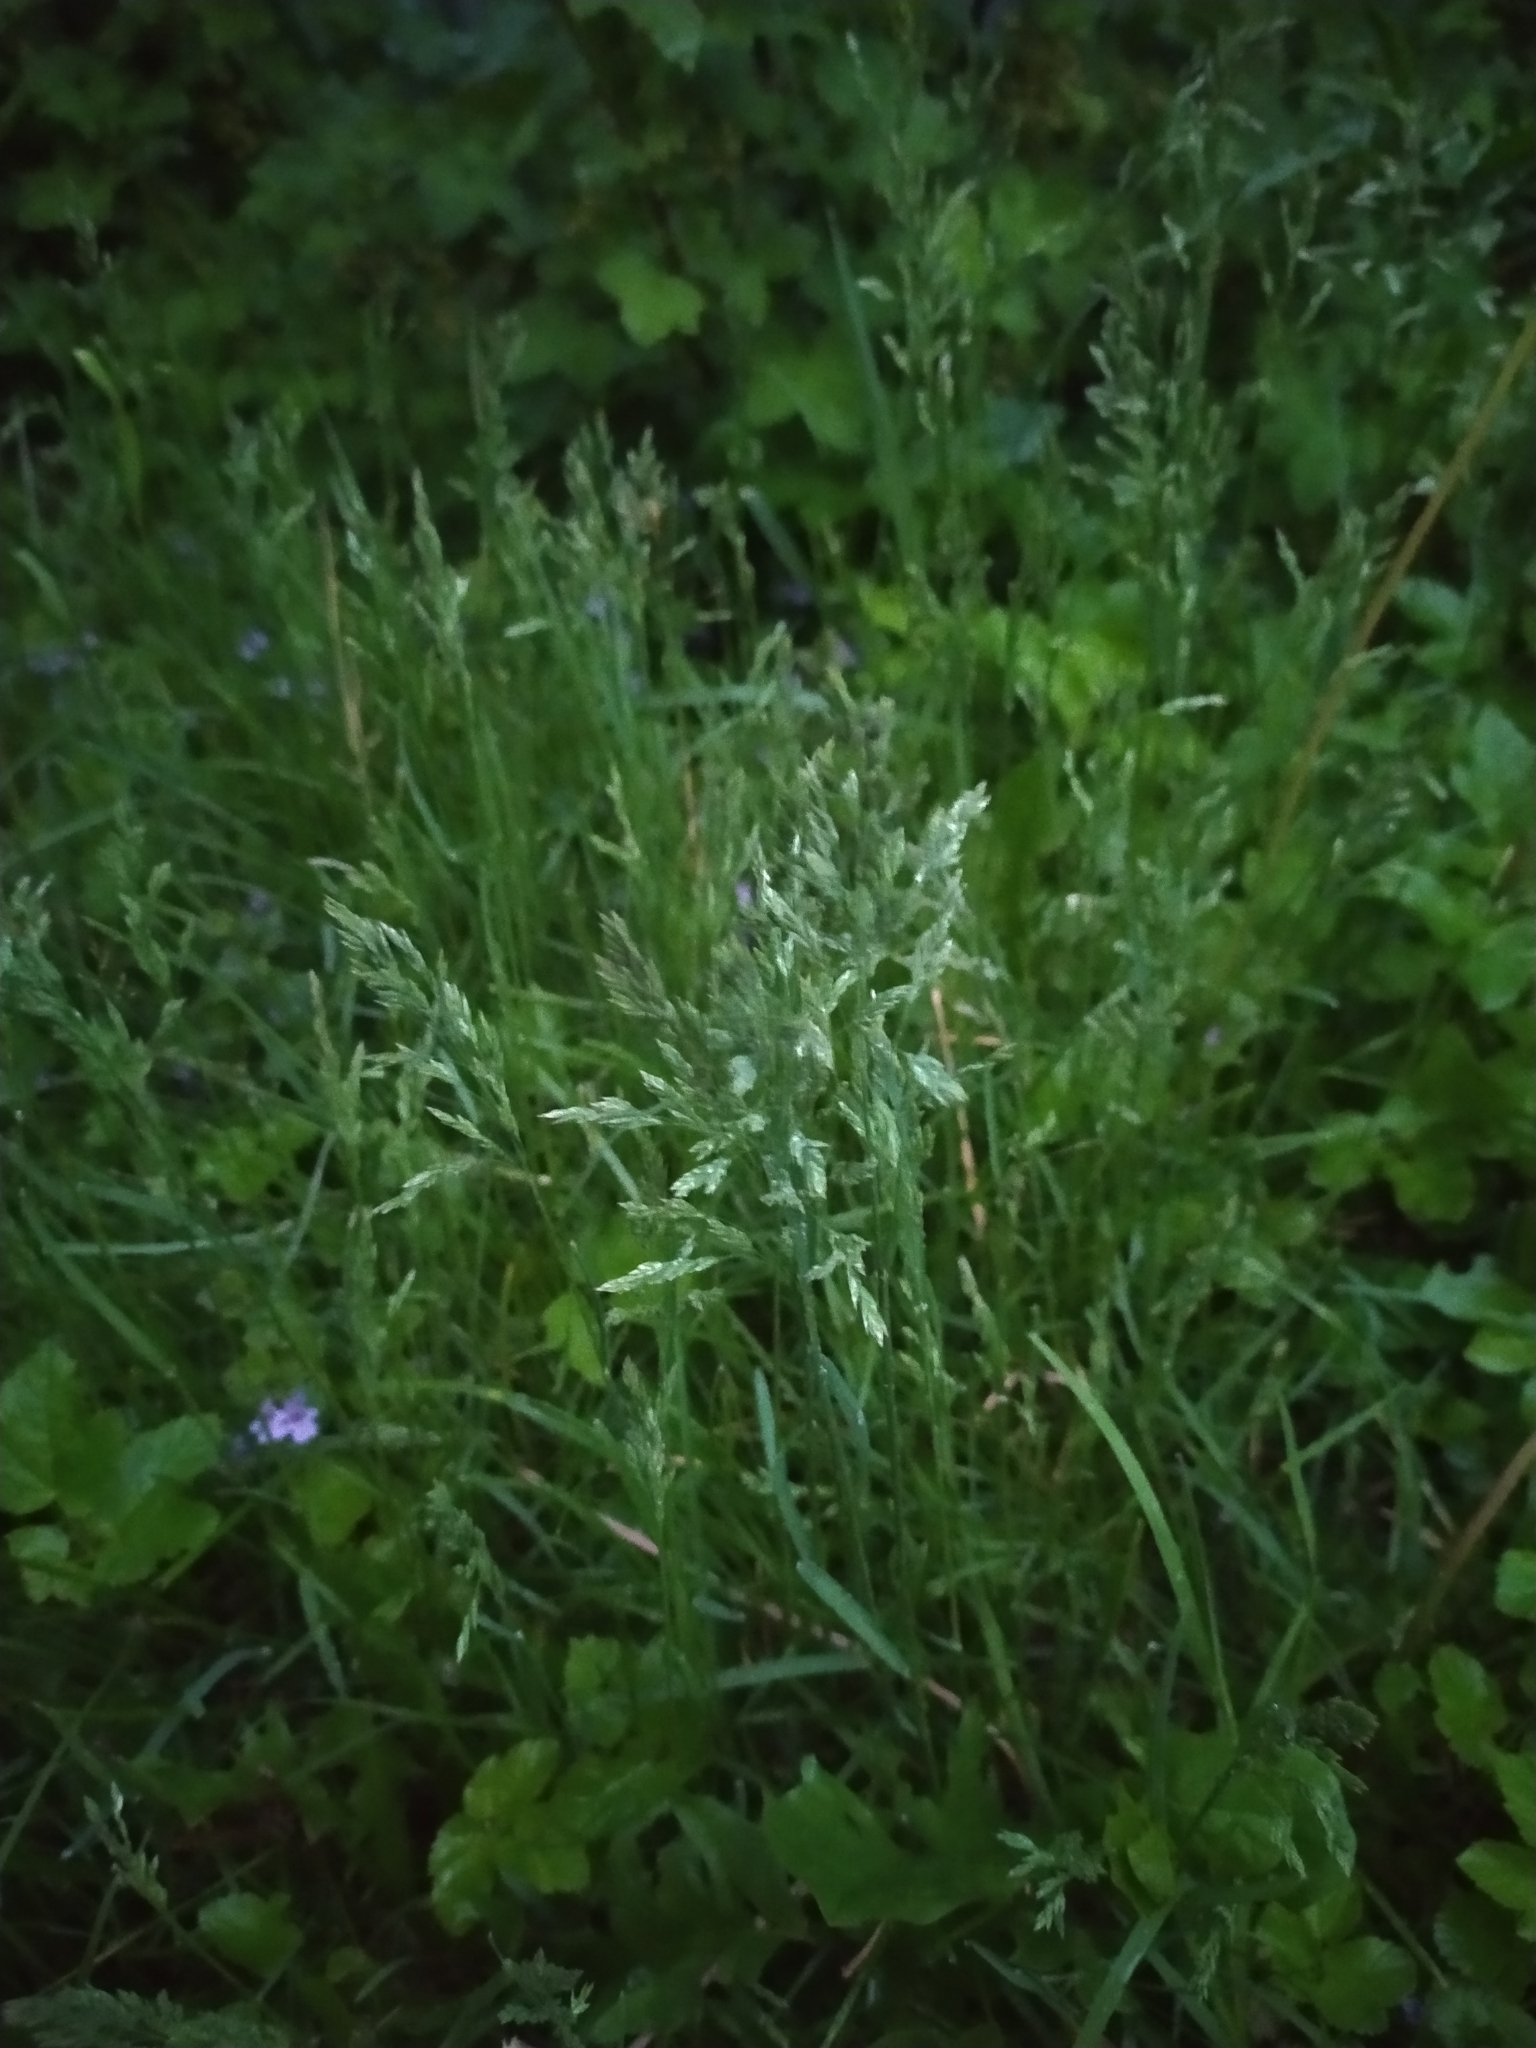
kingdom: Plantae
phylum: Tracheophyta
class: Liliopsida
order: Poales
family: Poaceae
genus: Poa
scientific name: Poa annua
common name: Annual bluegrass
